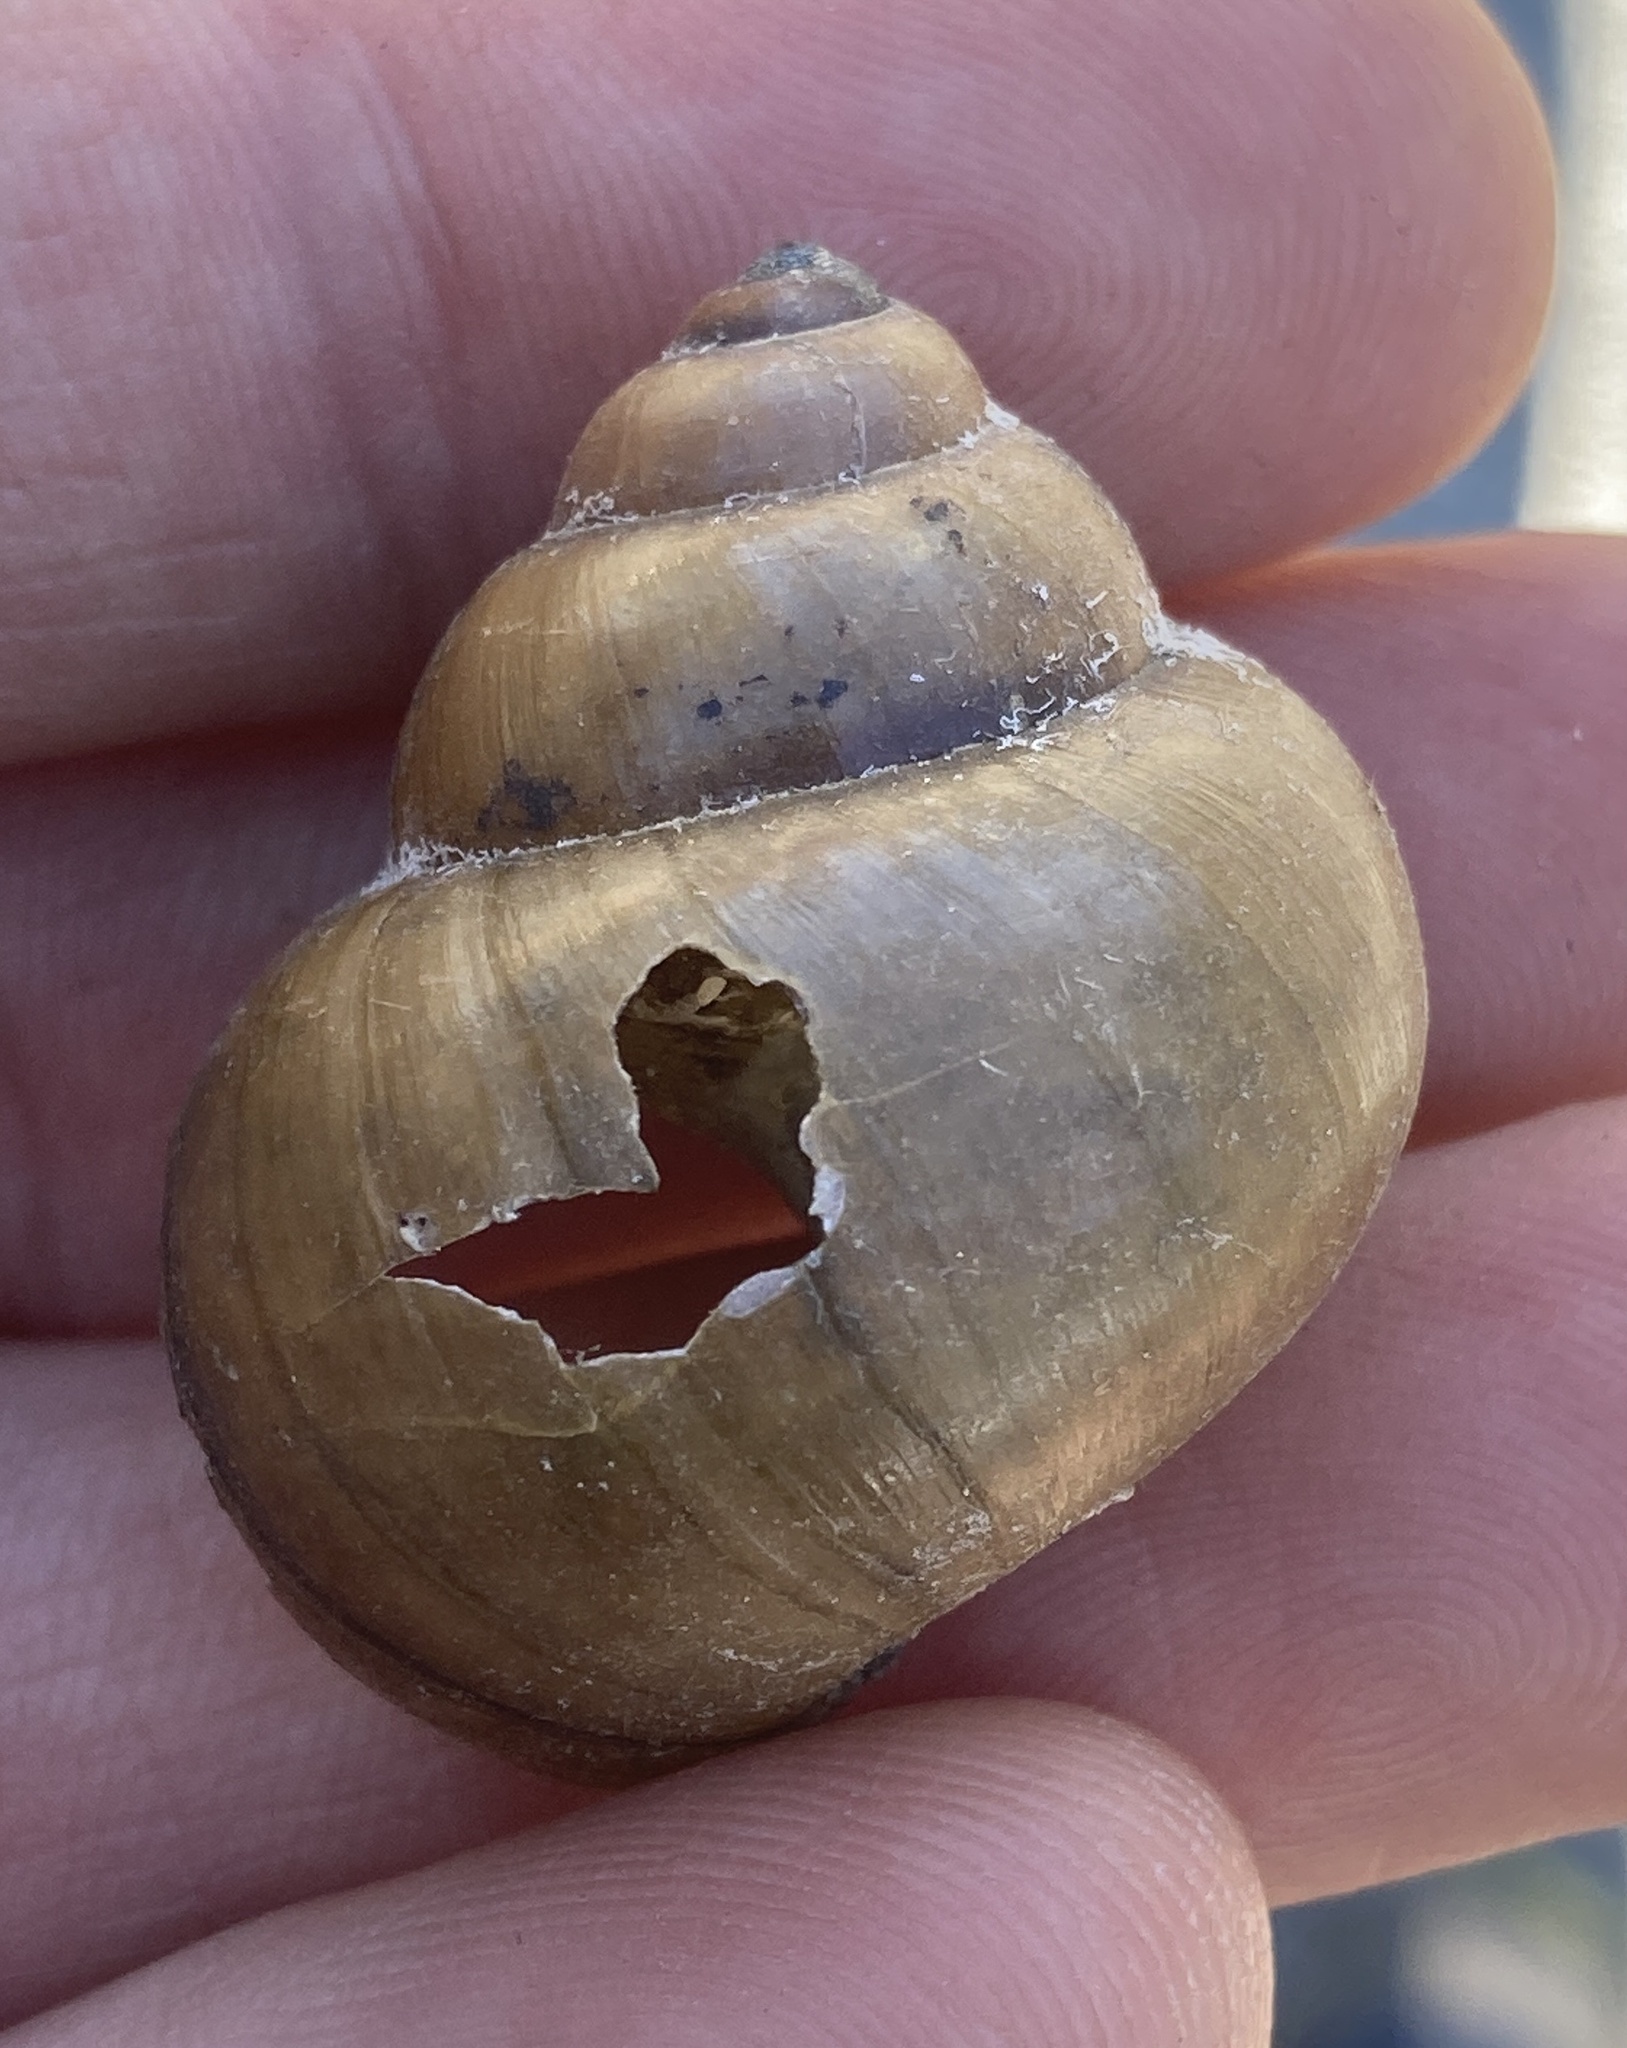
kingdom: Animalia
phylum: Mollusca
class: Gastropoda
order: Architaenioglossa
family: Viviparidae
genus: Cipangopaludina
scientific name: Cipangopaludina chinensis
